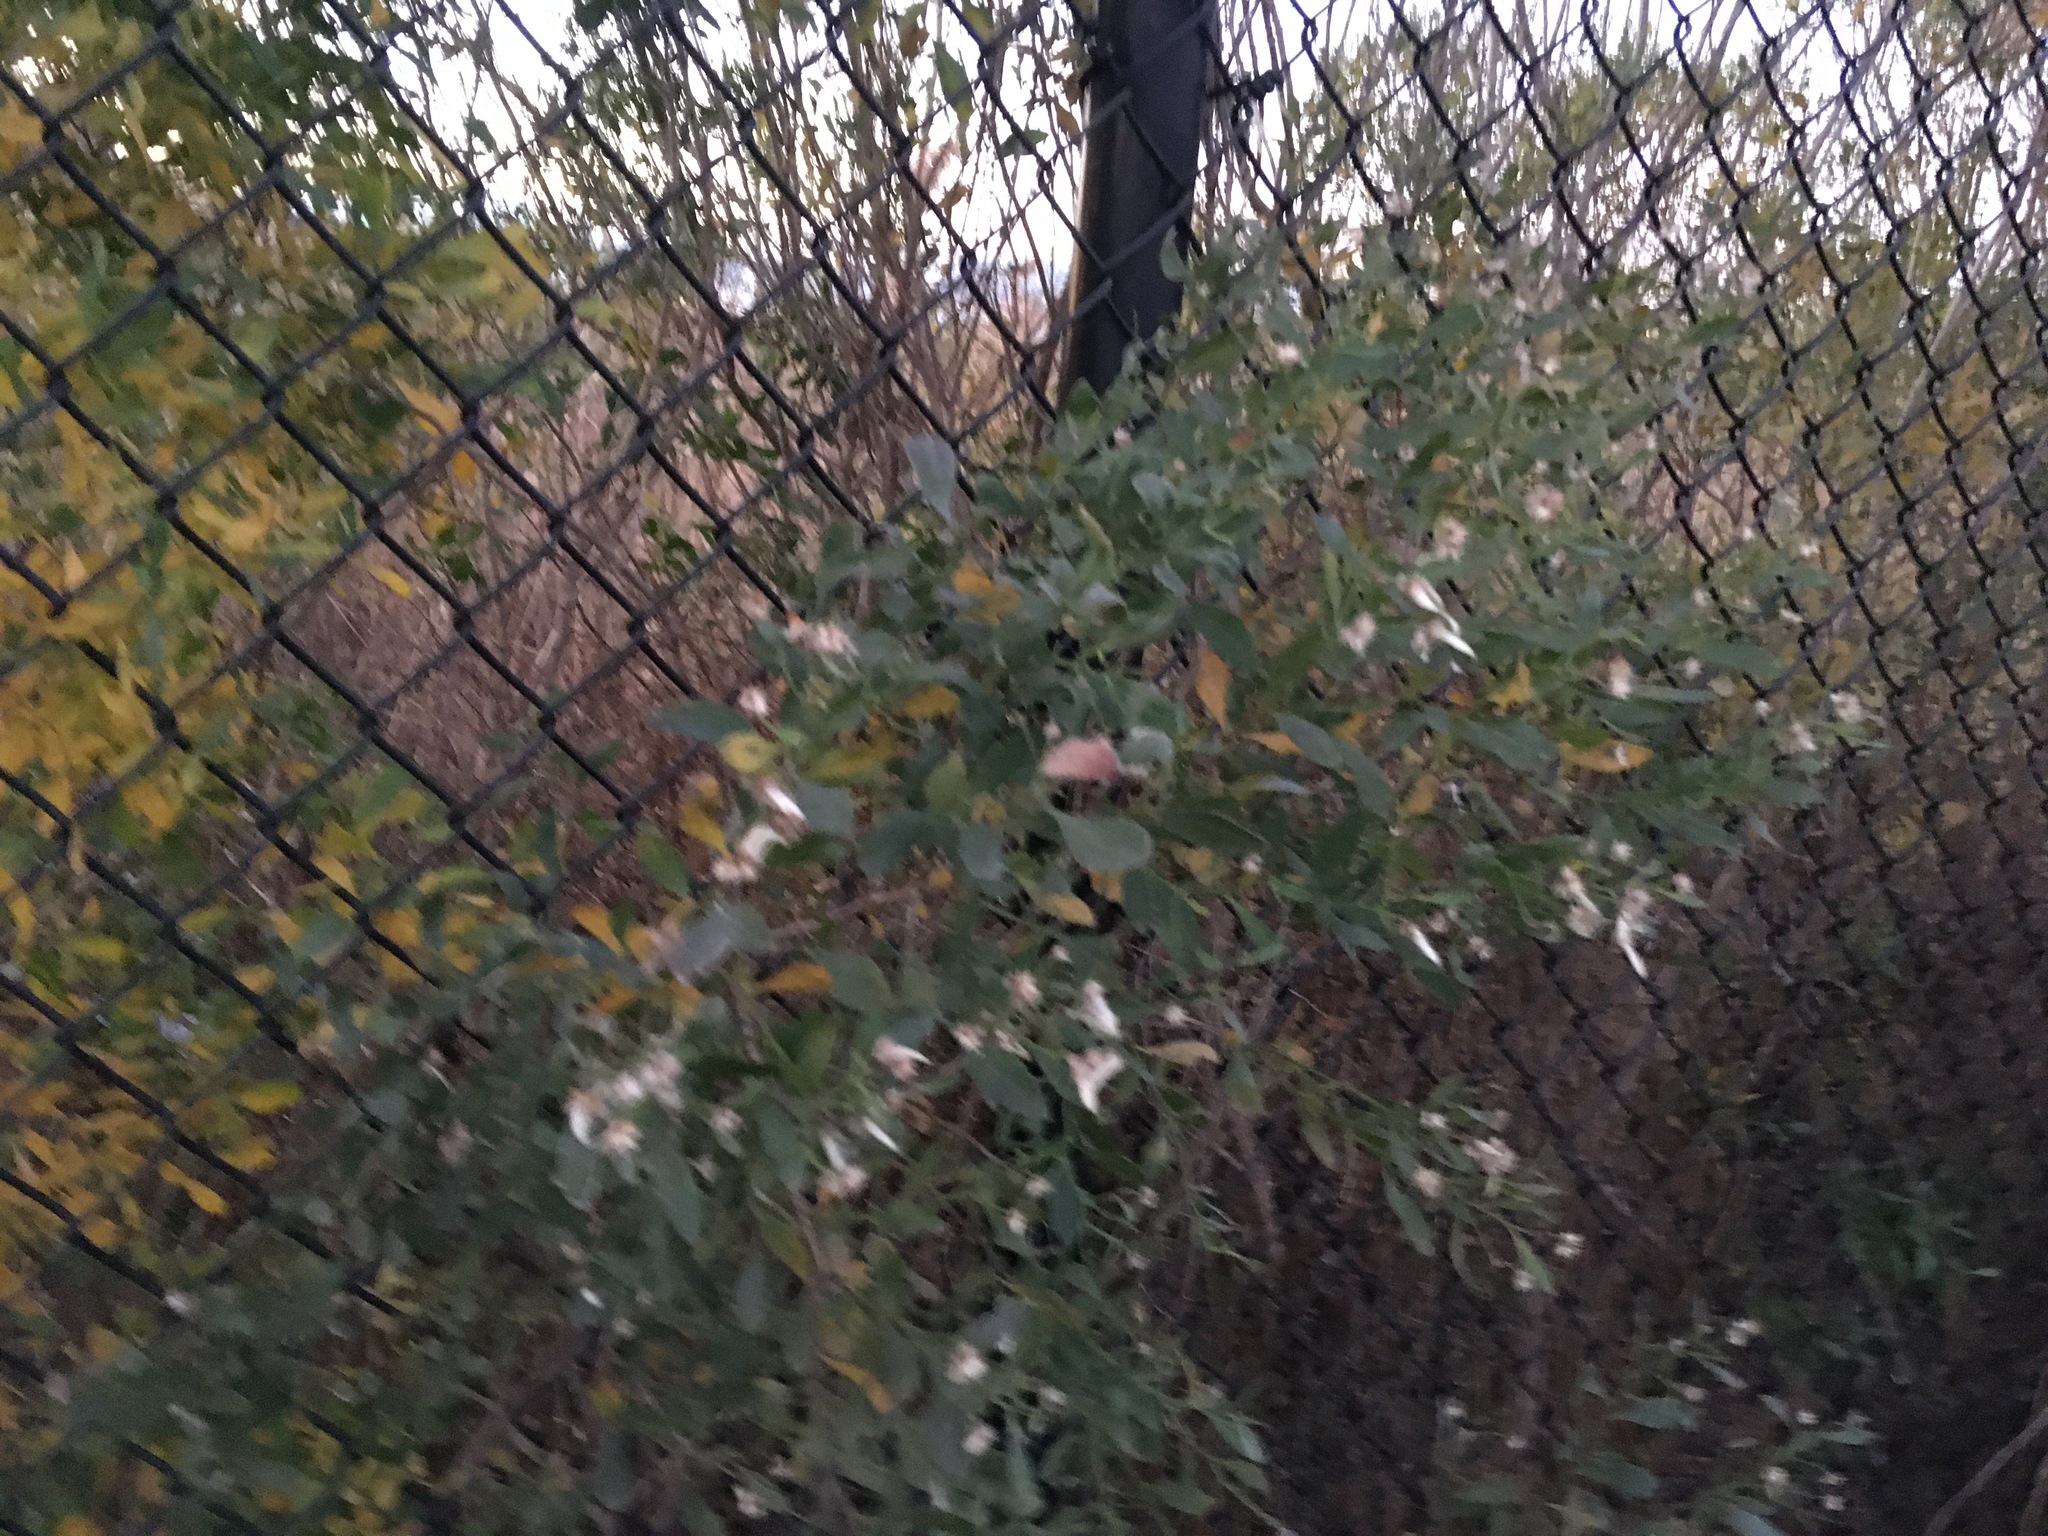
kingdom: Plantae
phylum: Tracheophyta
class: Magnoliopsida
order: Asterales
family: Asteraceae
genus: Baccharis
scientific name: Baccharis halimifolia
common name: Eastern baccharis
